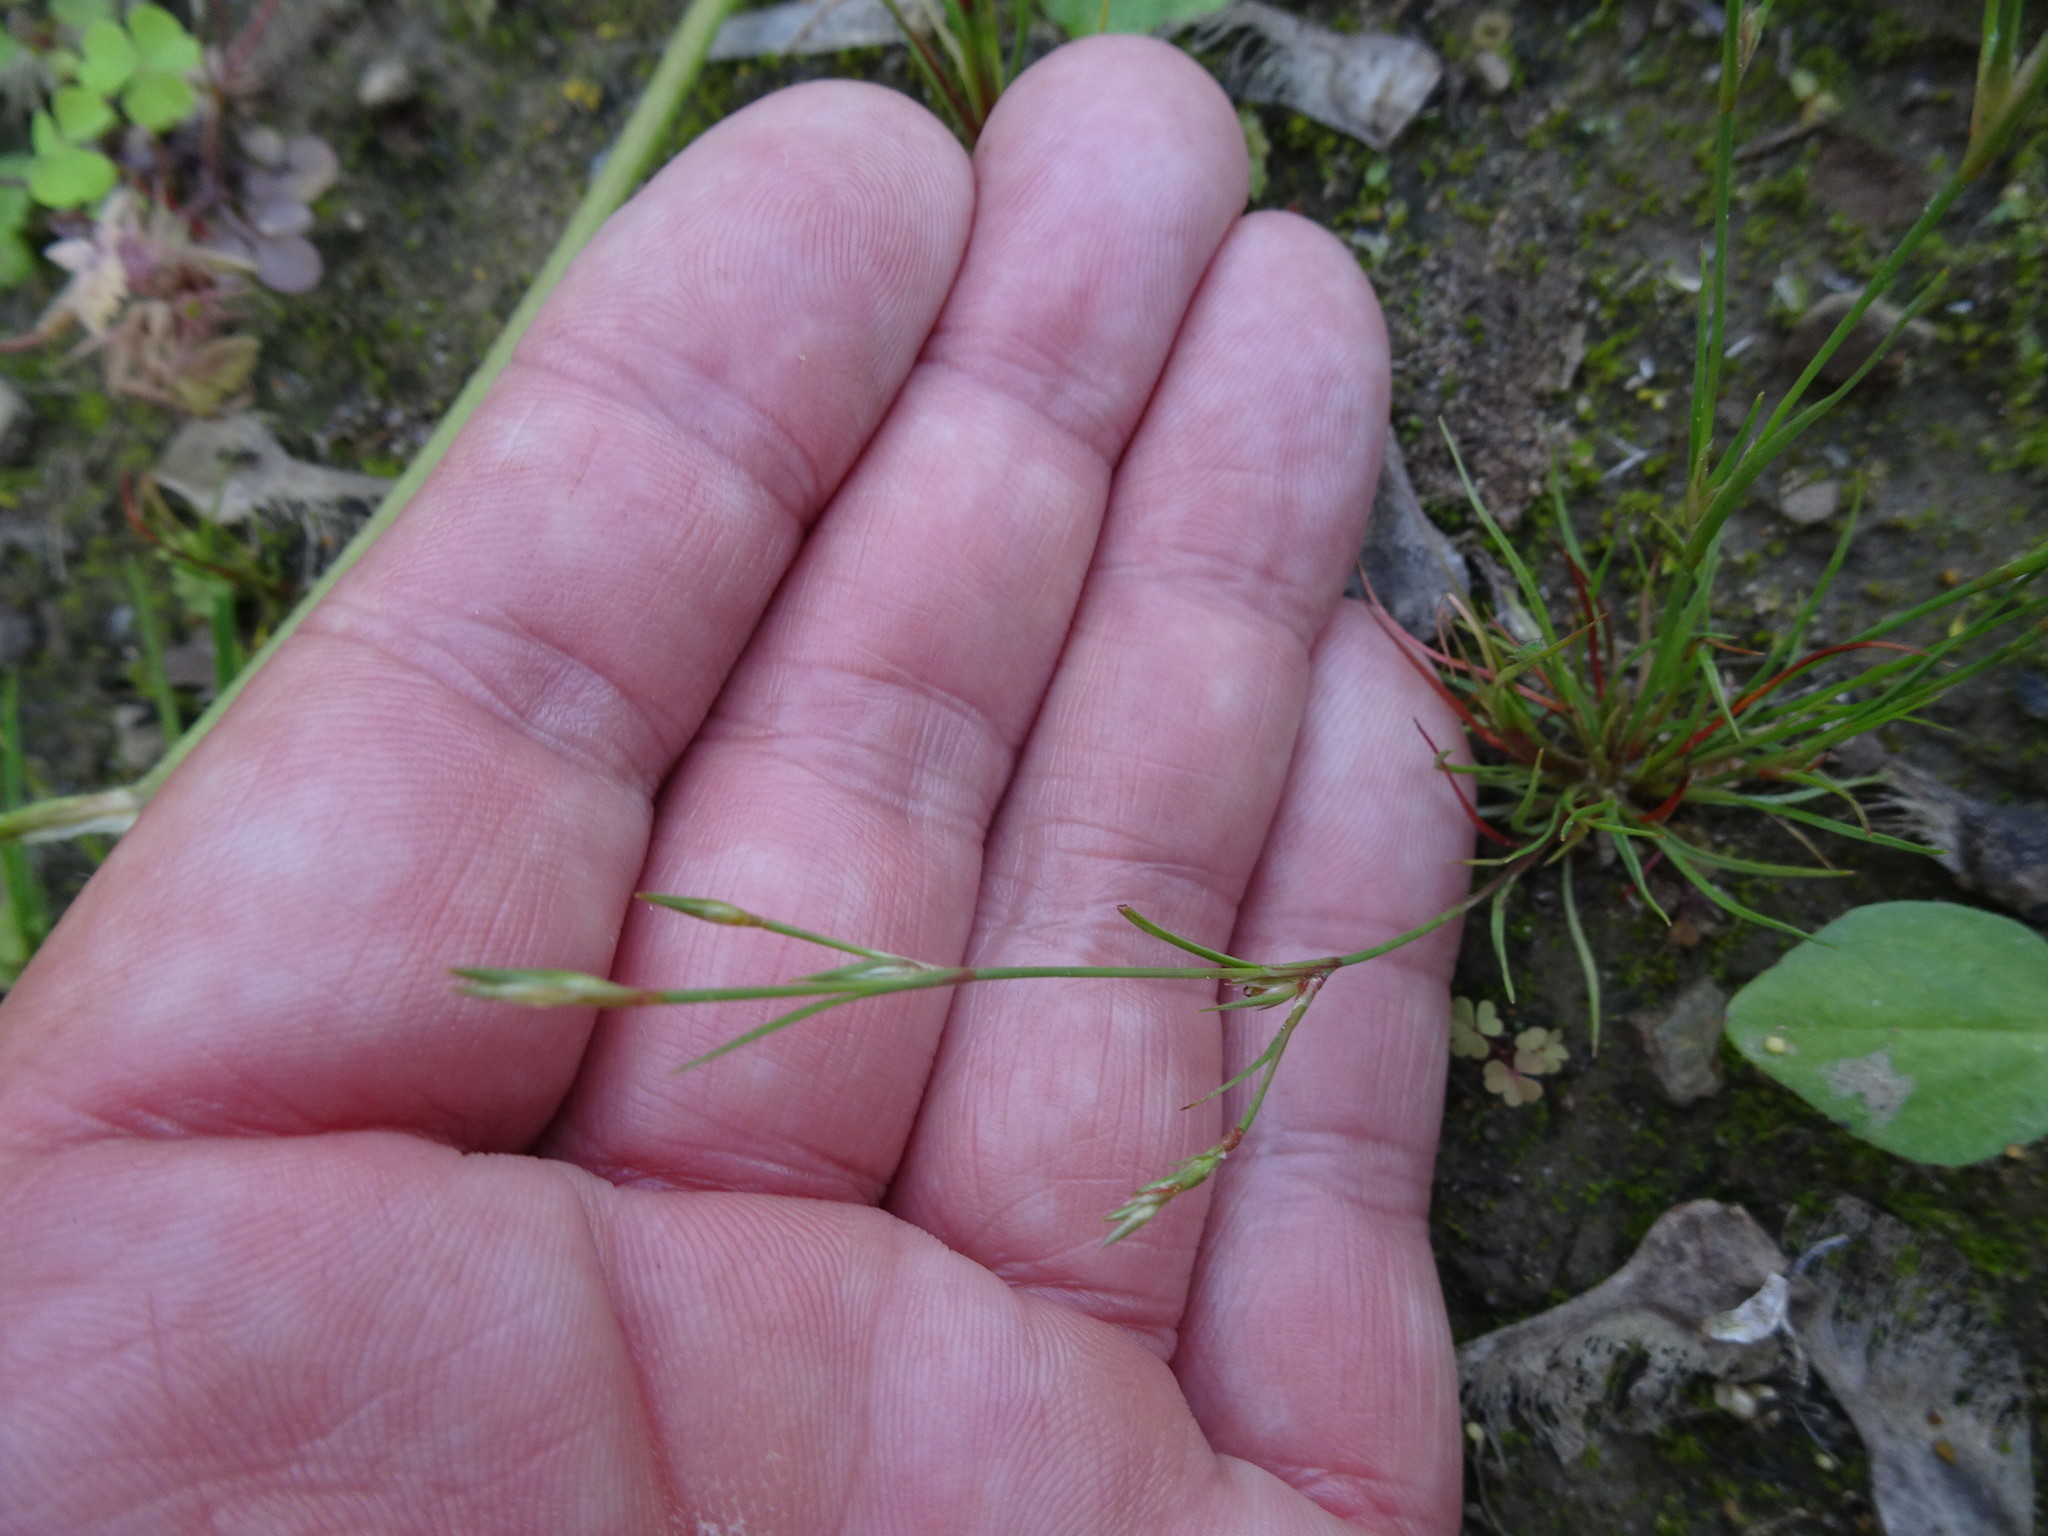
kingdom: Plantae
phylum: Tracheophyta
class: Liliopsida
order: Poales
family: Juncaceae
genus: Juncus
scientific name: Juncus bufonius
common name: Toad rush
